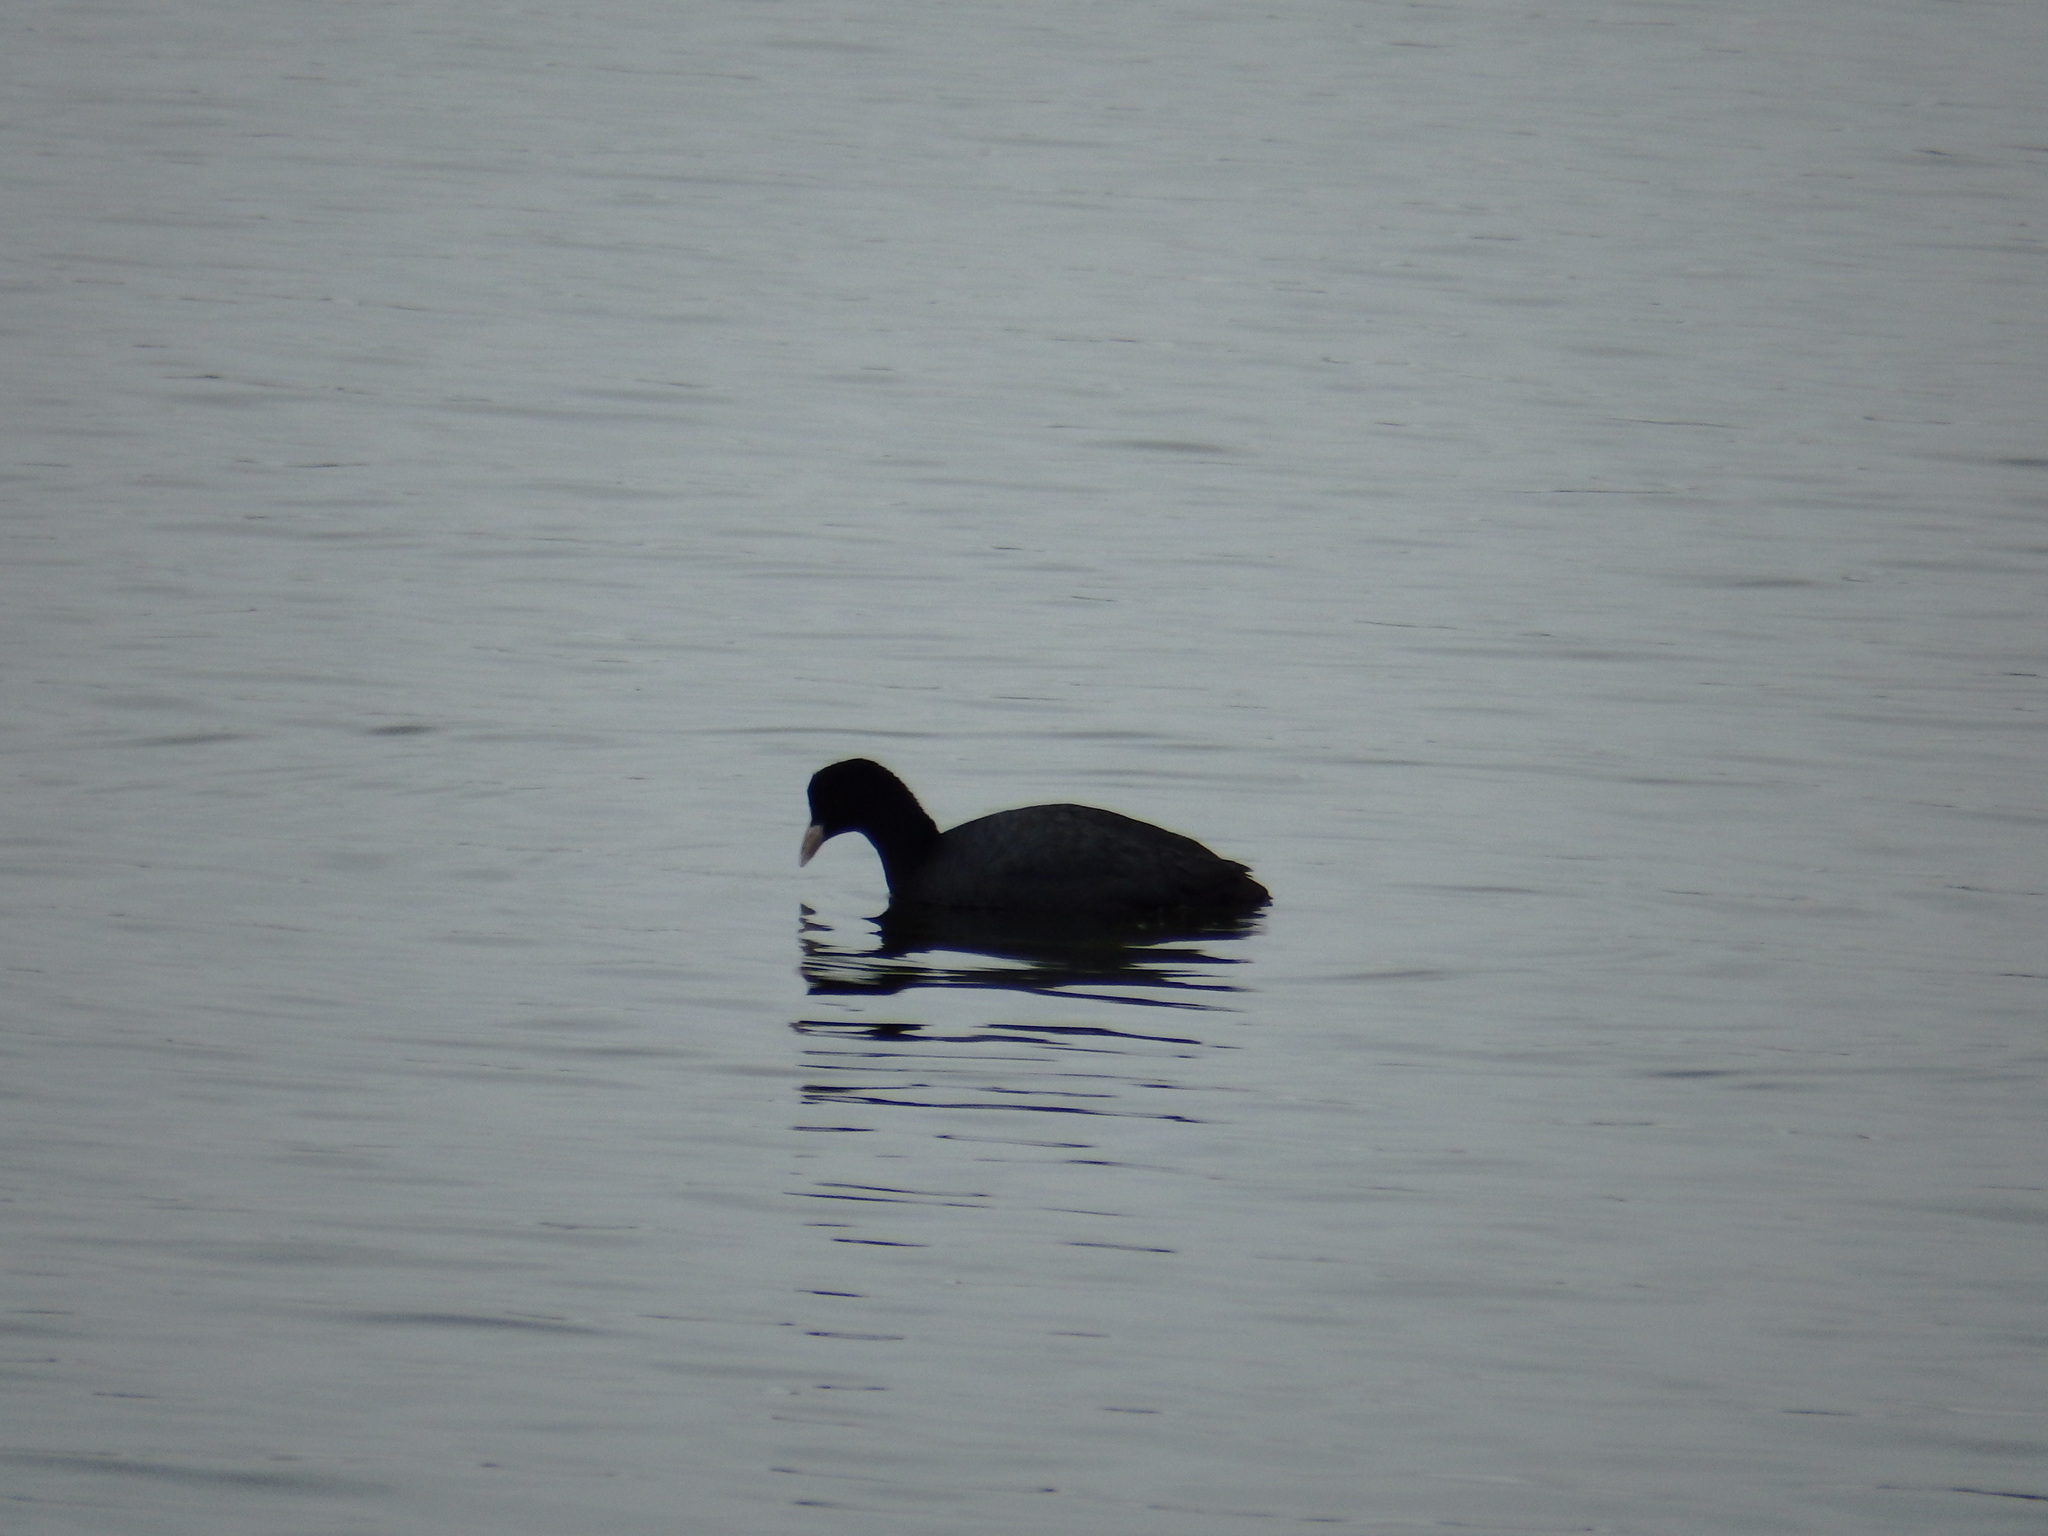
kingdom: Animalia
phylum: Chordata
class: Aves
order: Gruiformes
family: Rallidae
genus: Fulica
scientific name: Fulica atra
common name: Eurasian coot
